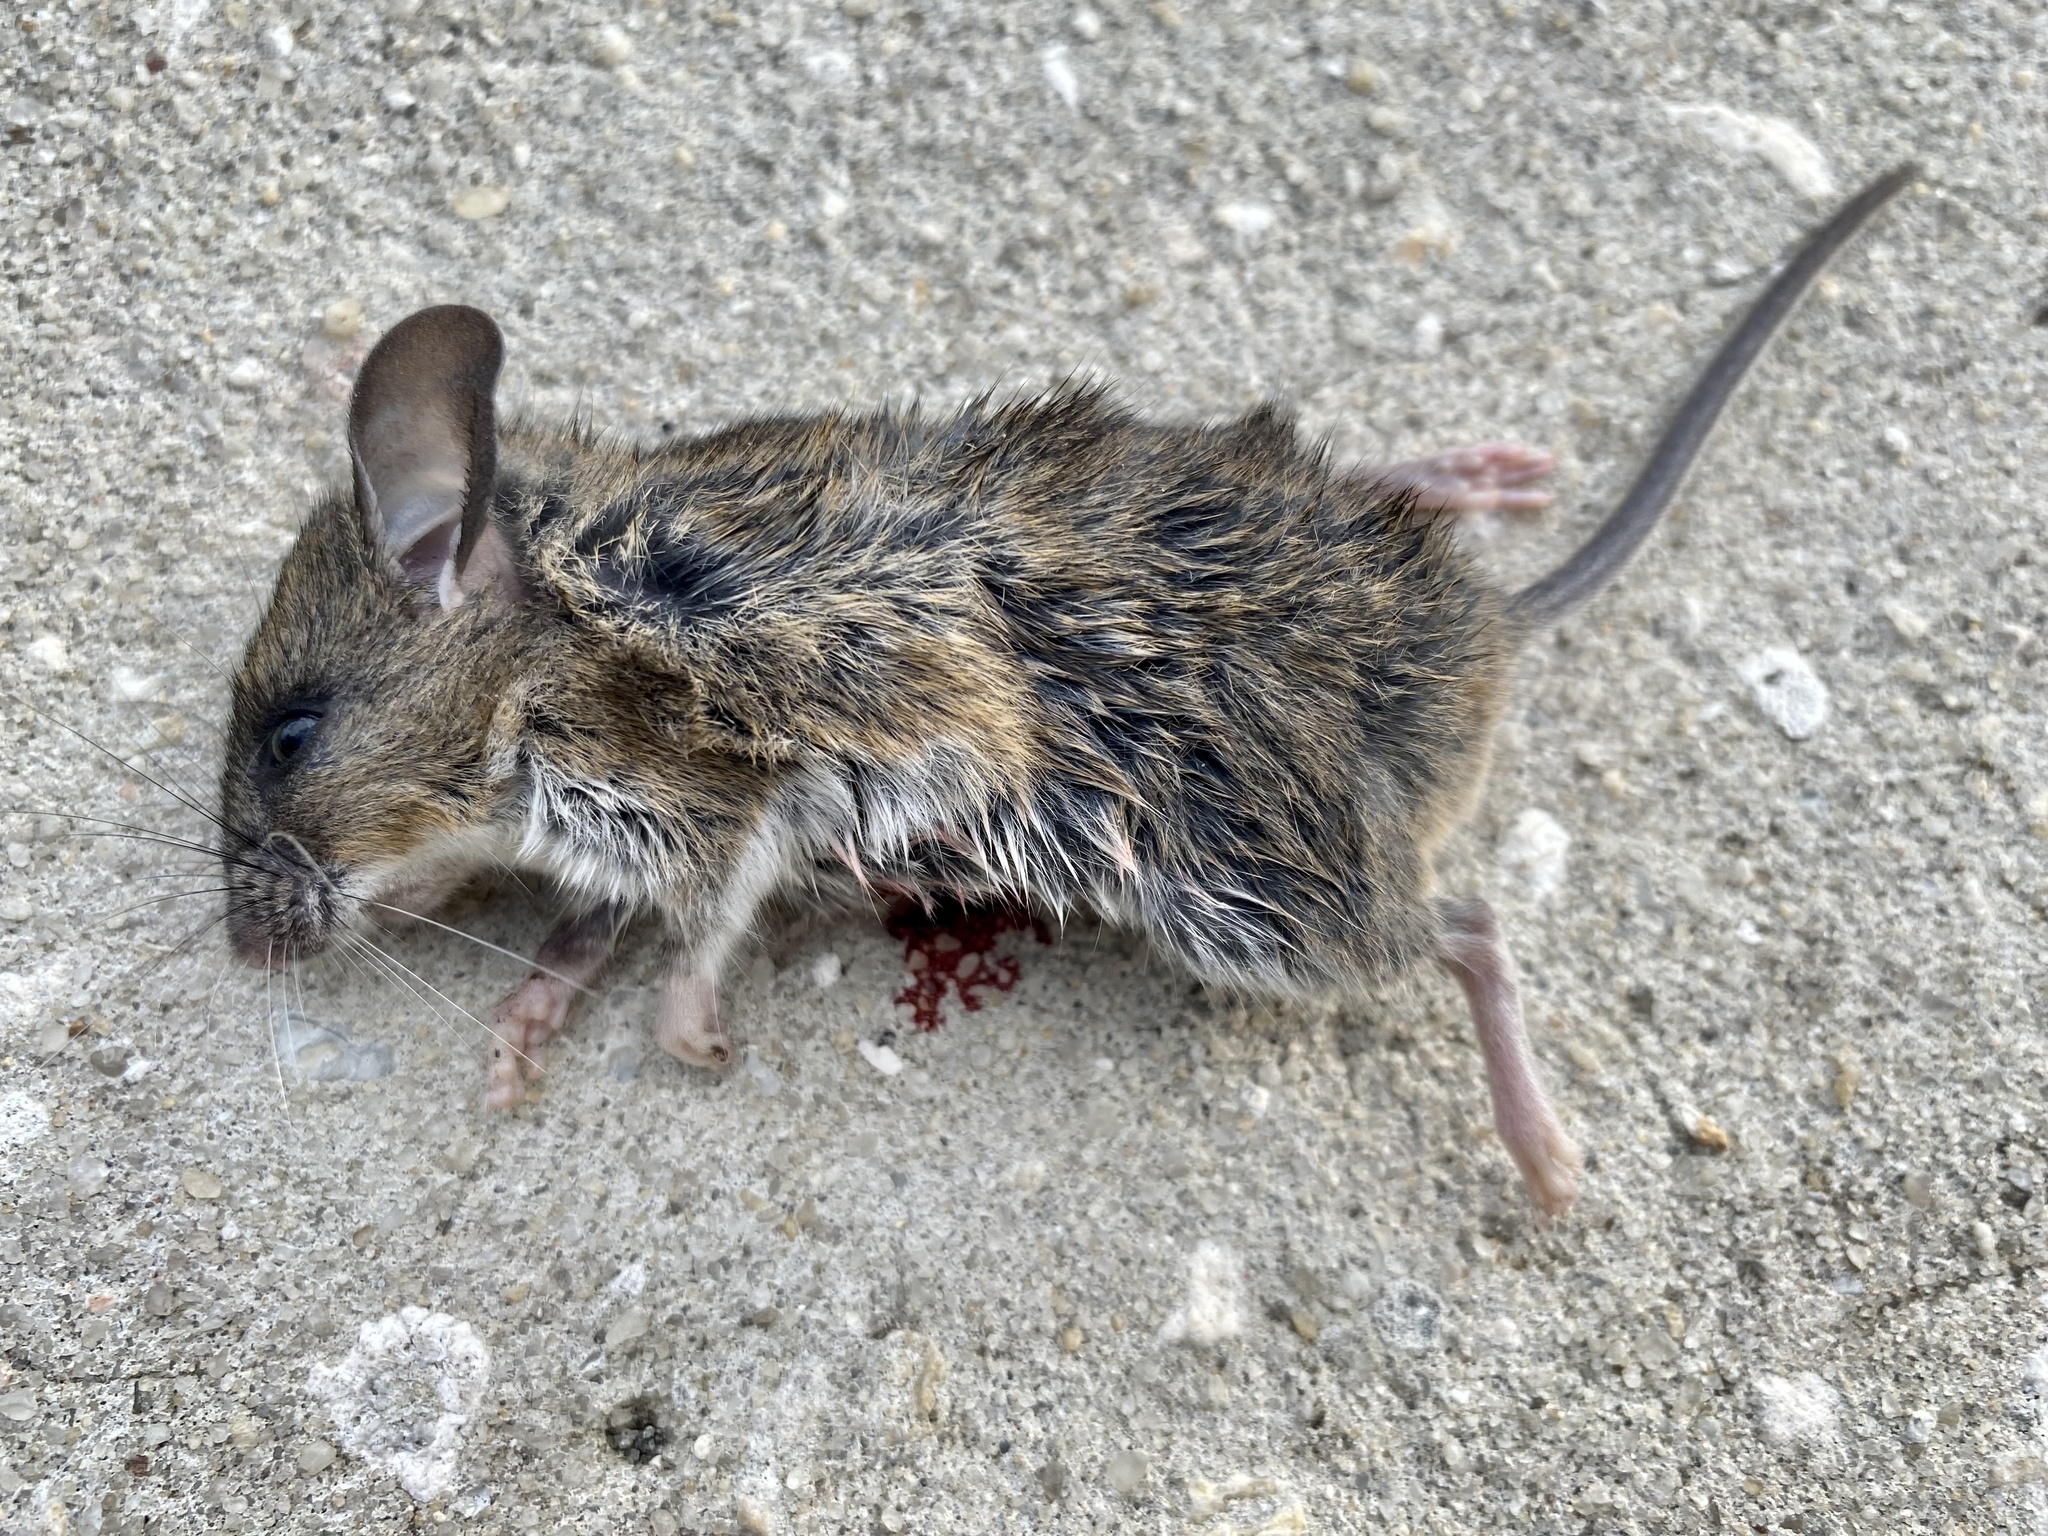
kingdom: Animalia
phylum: Chordata
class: Mammalia
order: Rodentia
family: Cricetidae
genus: Peromyscus
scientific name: Peromyscus gossypinus
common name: Cotton deermouse
